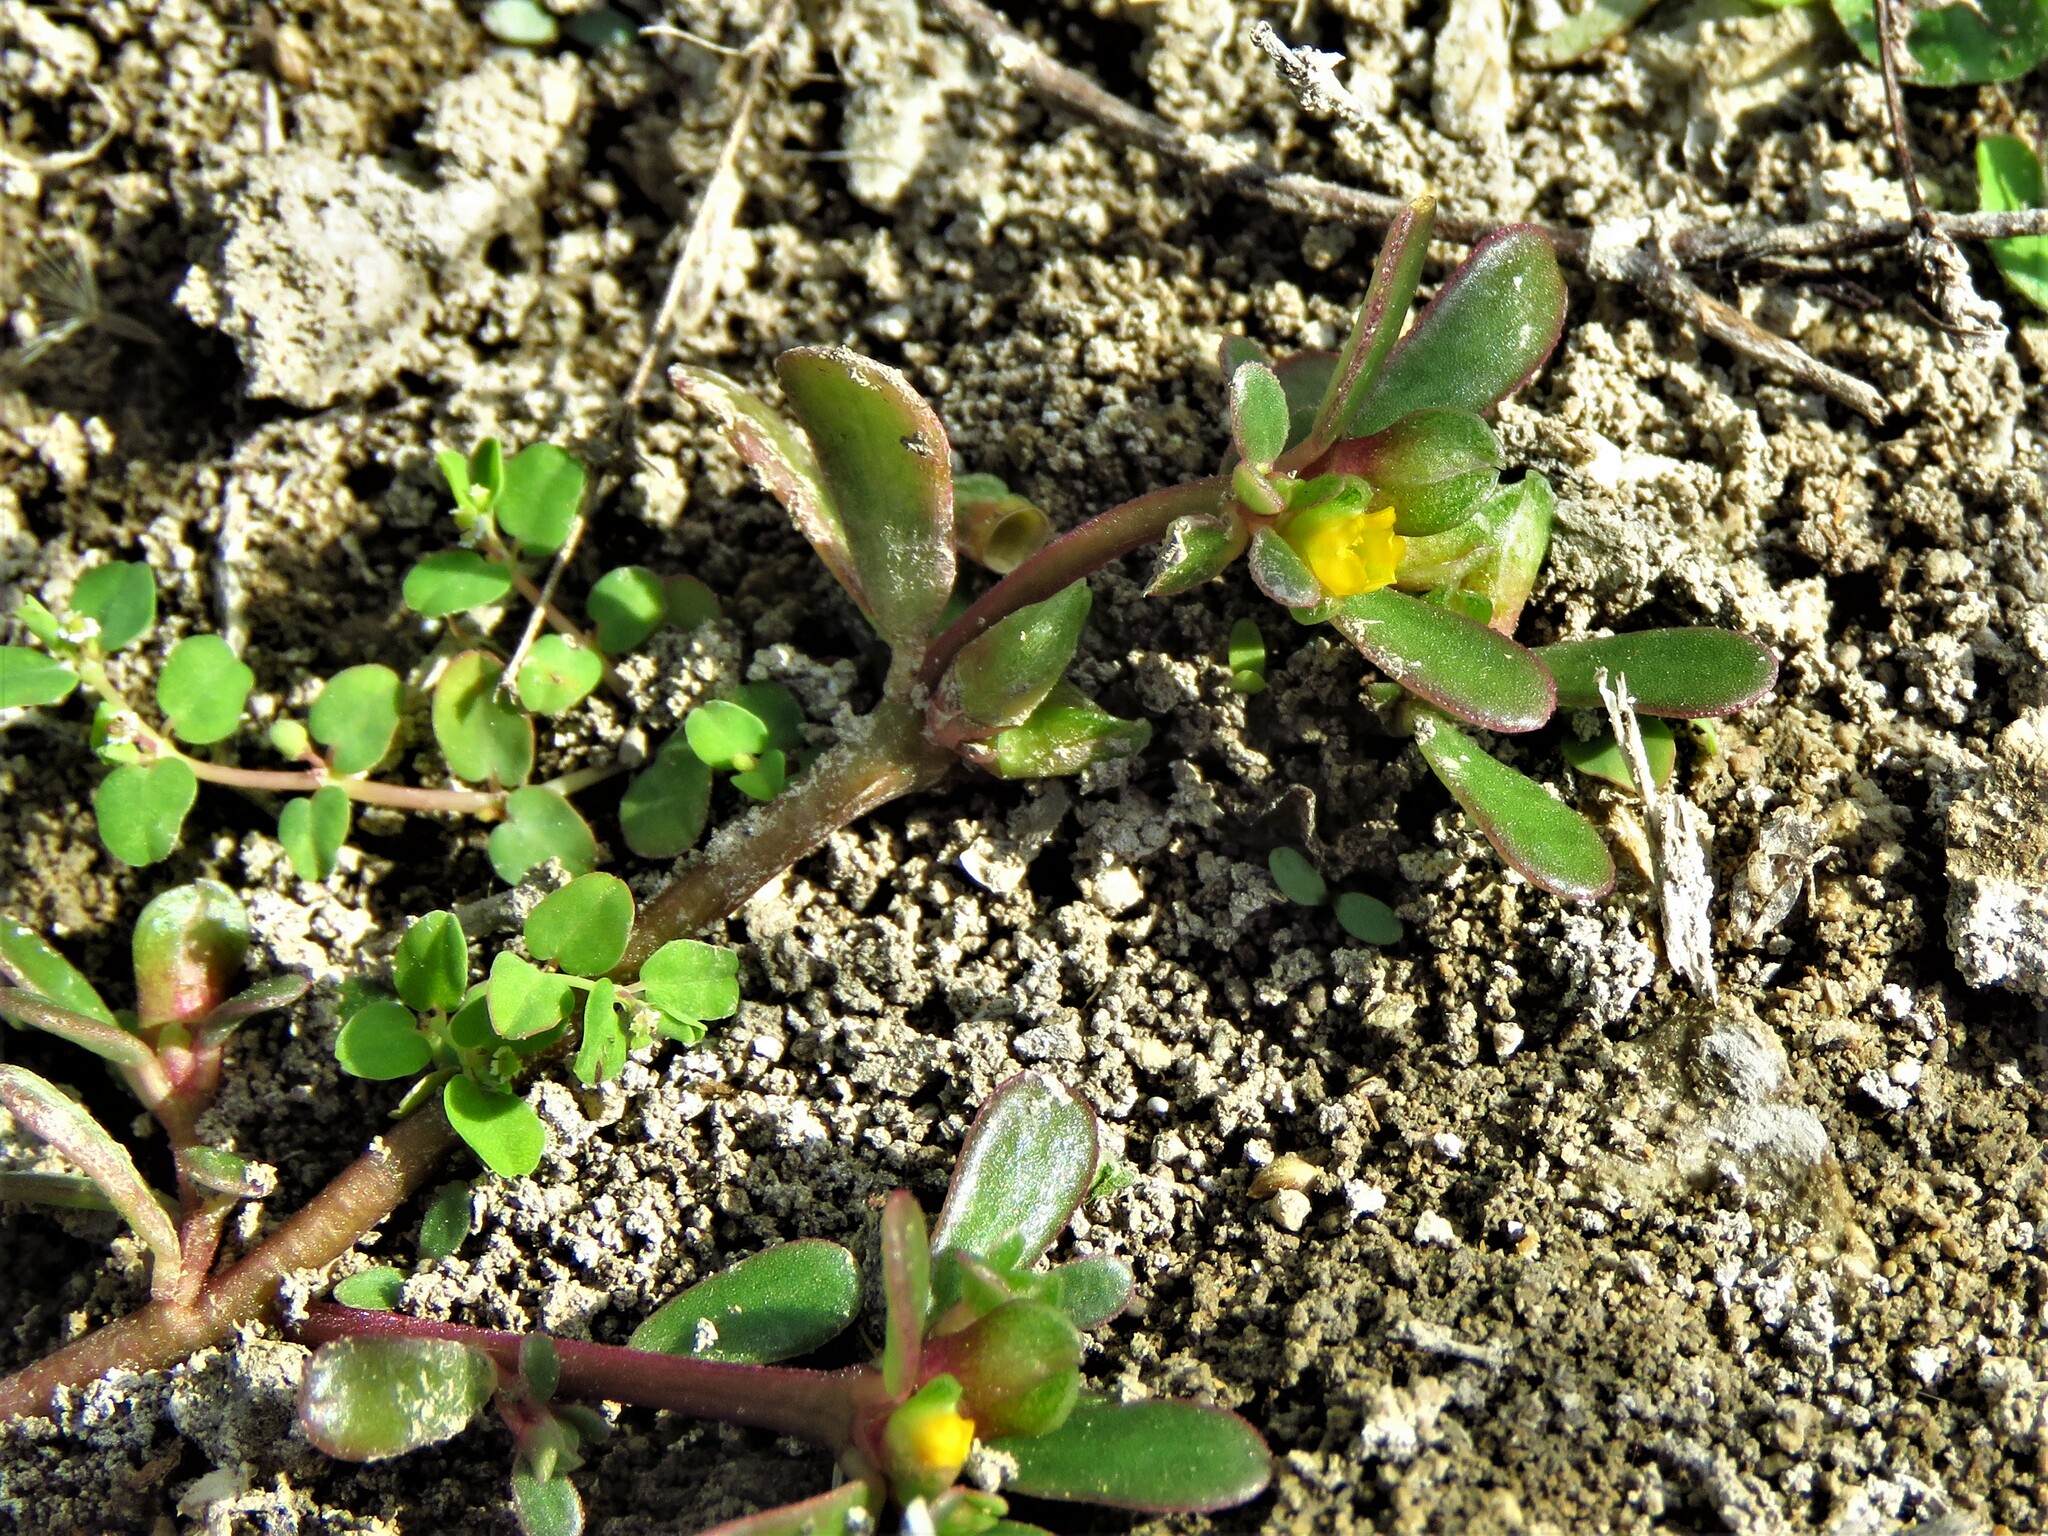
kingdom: Plantae
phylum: Tracheophyta
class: Magnoliopsida
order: Caryophyllales
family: Portulacaceae
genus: Portulaca
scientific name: Portulaca oleracea
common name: Common purslane
